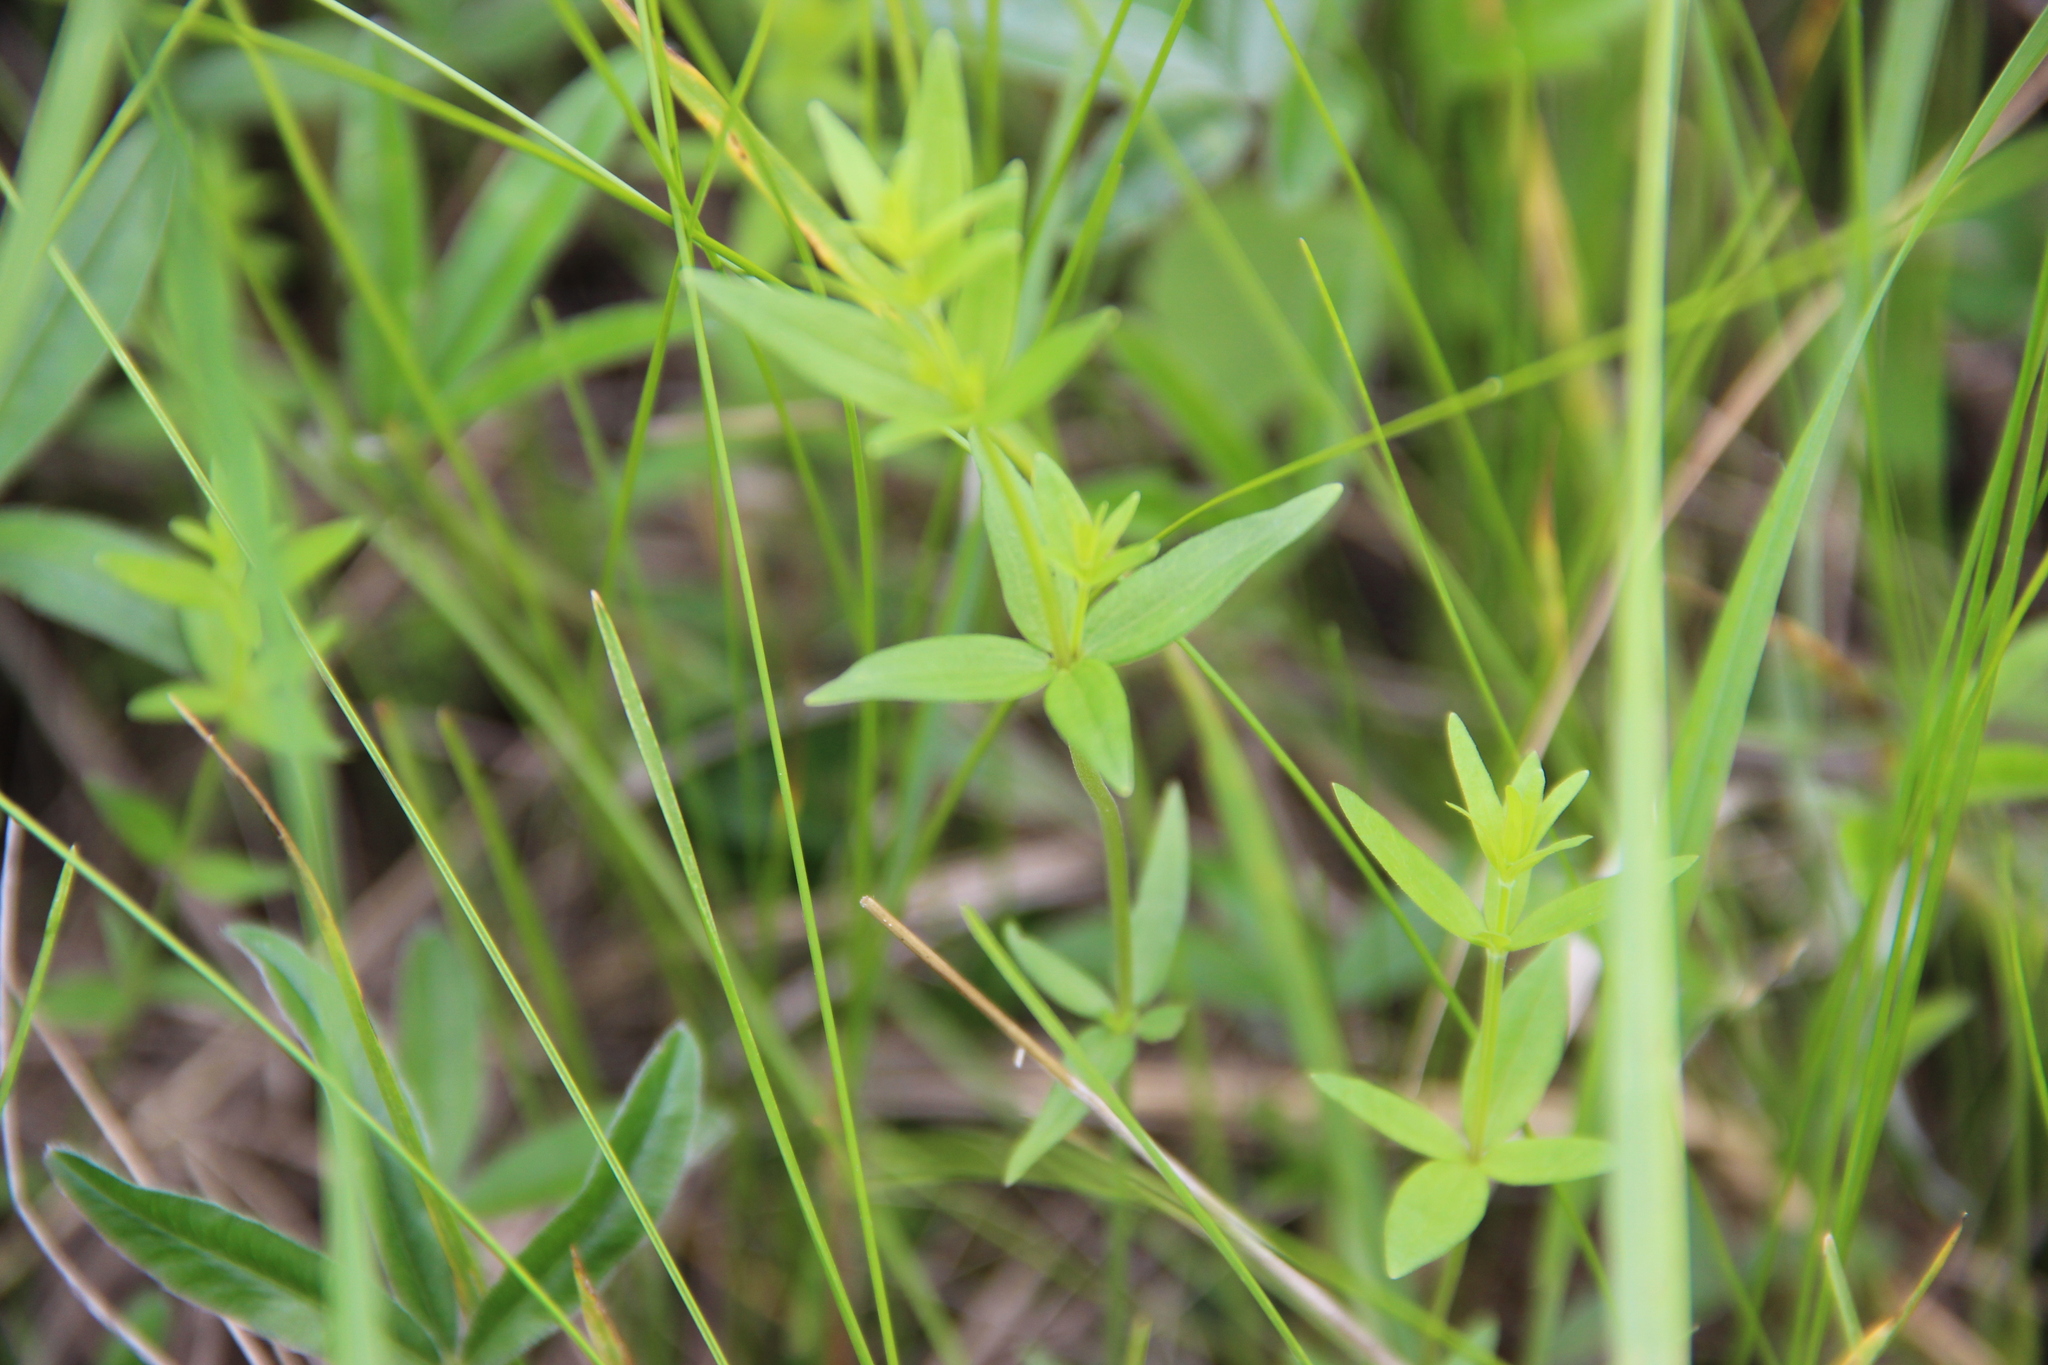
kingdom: Plantae
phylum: Tracheophyta
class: Magnoliopsida
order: Gentianales
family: Rubiaceae
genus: Galium
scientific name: Galium boreale
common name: Northern bedstraw
